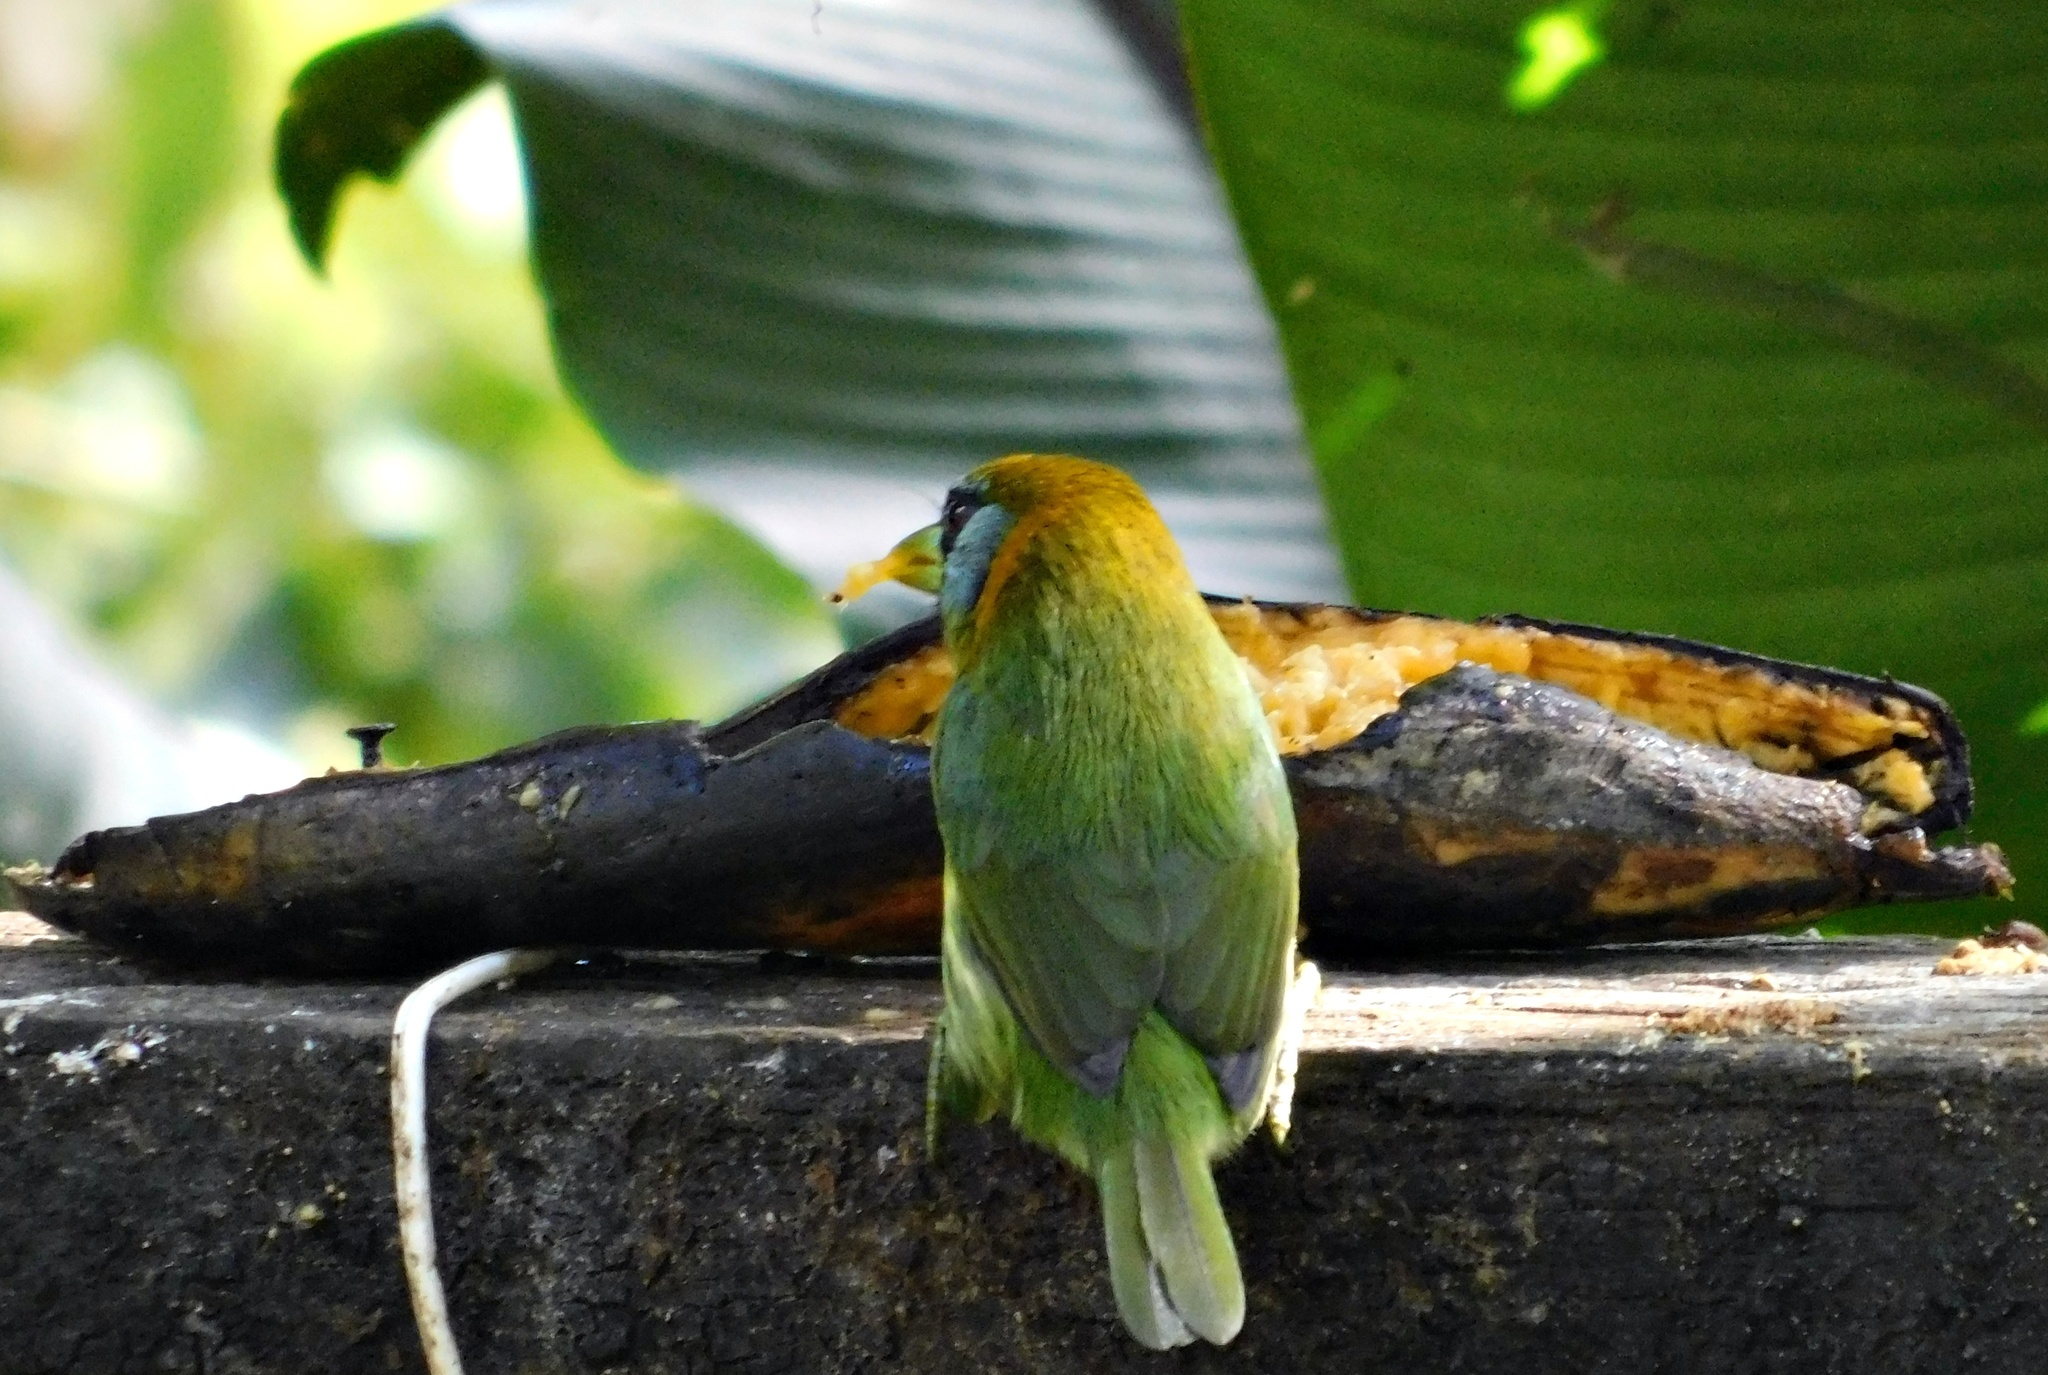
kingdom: Animalia
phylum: Chordata
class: Aves
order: Piciformes
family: Capitonidae
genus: Eubucco
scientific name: Eubucco bourcierii
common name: Red-headed barbet
